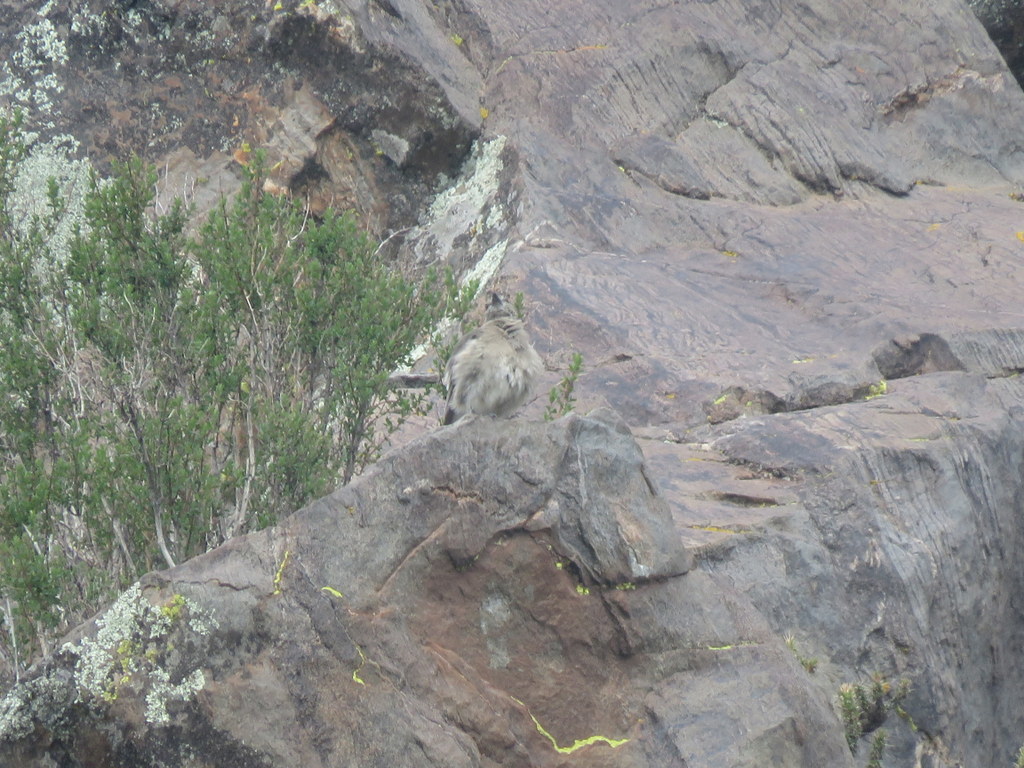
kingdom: Animalia
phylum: Chordata
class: Aves
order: Passeriformes
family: Tyrannidae
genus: Agriornis
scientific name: Agriornis montanus
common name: Black-billed shrike-tyrant
